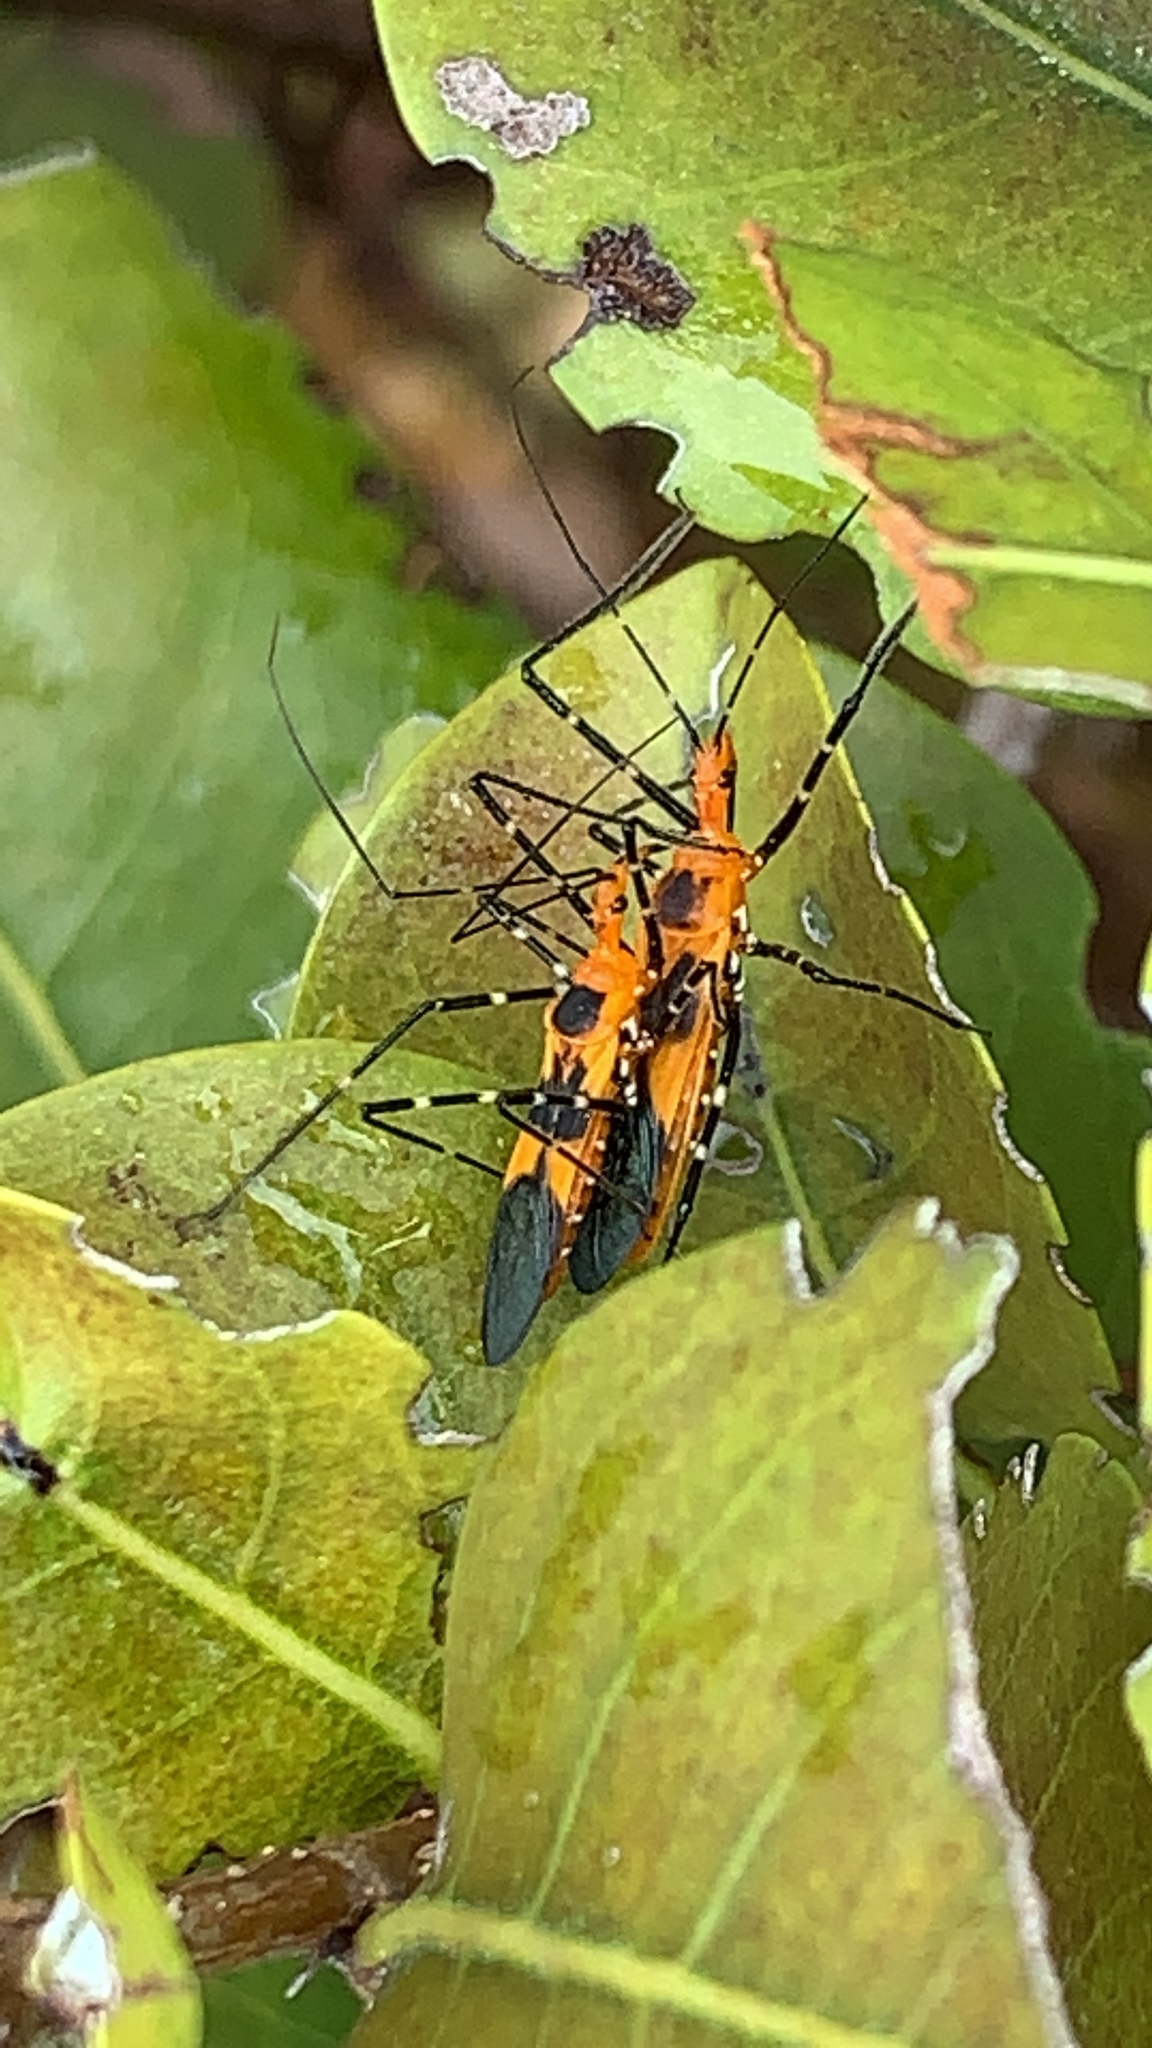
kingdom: Animalia
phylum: Arthropoda
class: Insecta
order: Hemiptera
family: Reduviidae
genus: Zelus
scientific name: Zelus longipes
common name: Milkweed assassin bug
